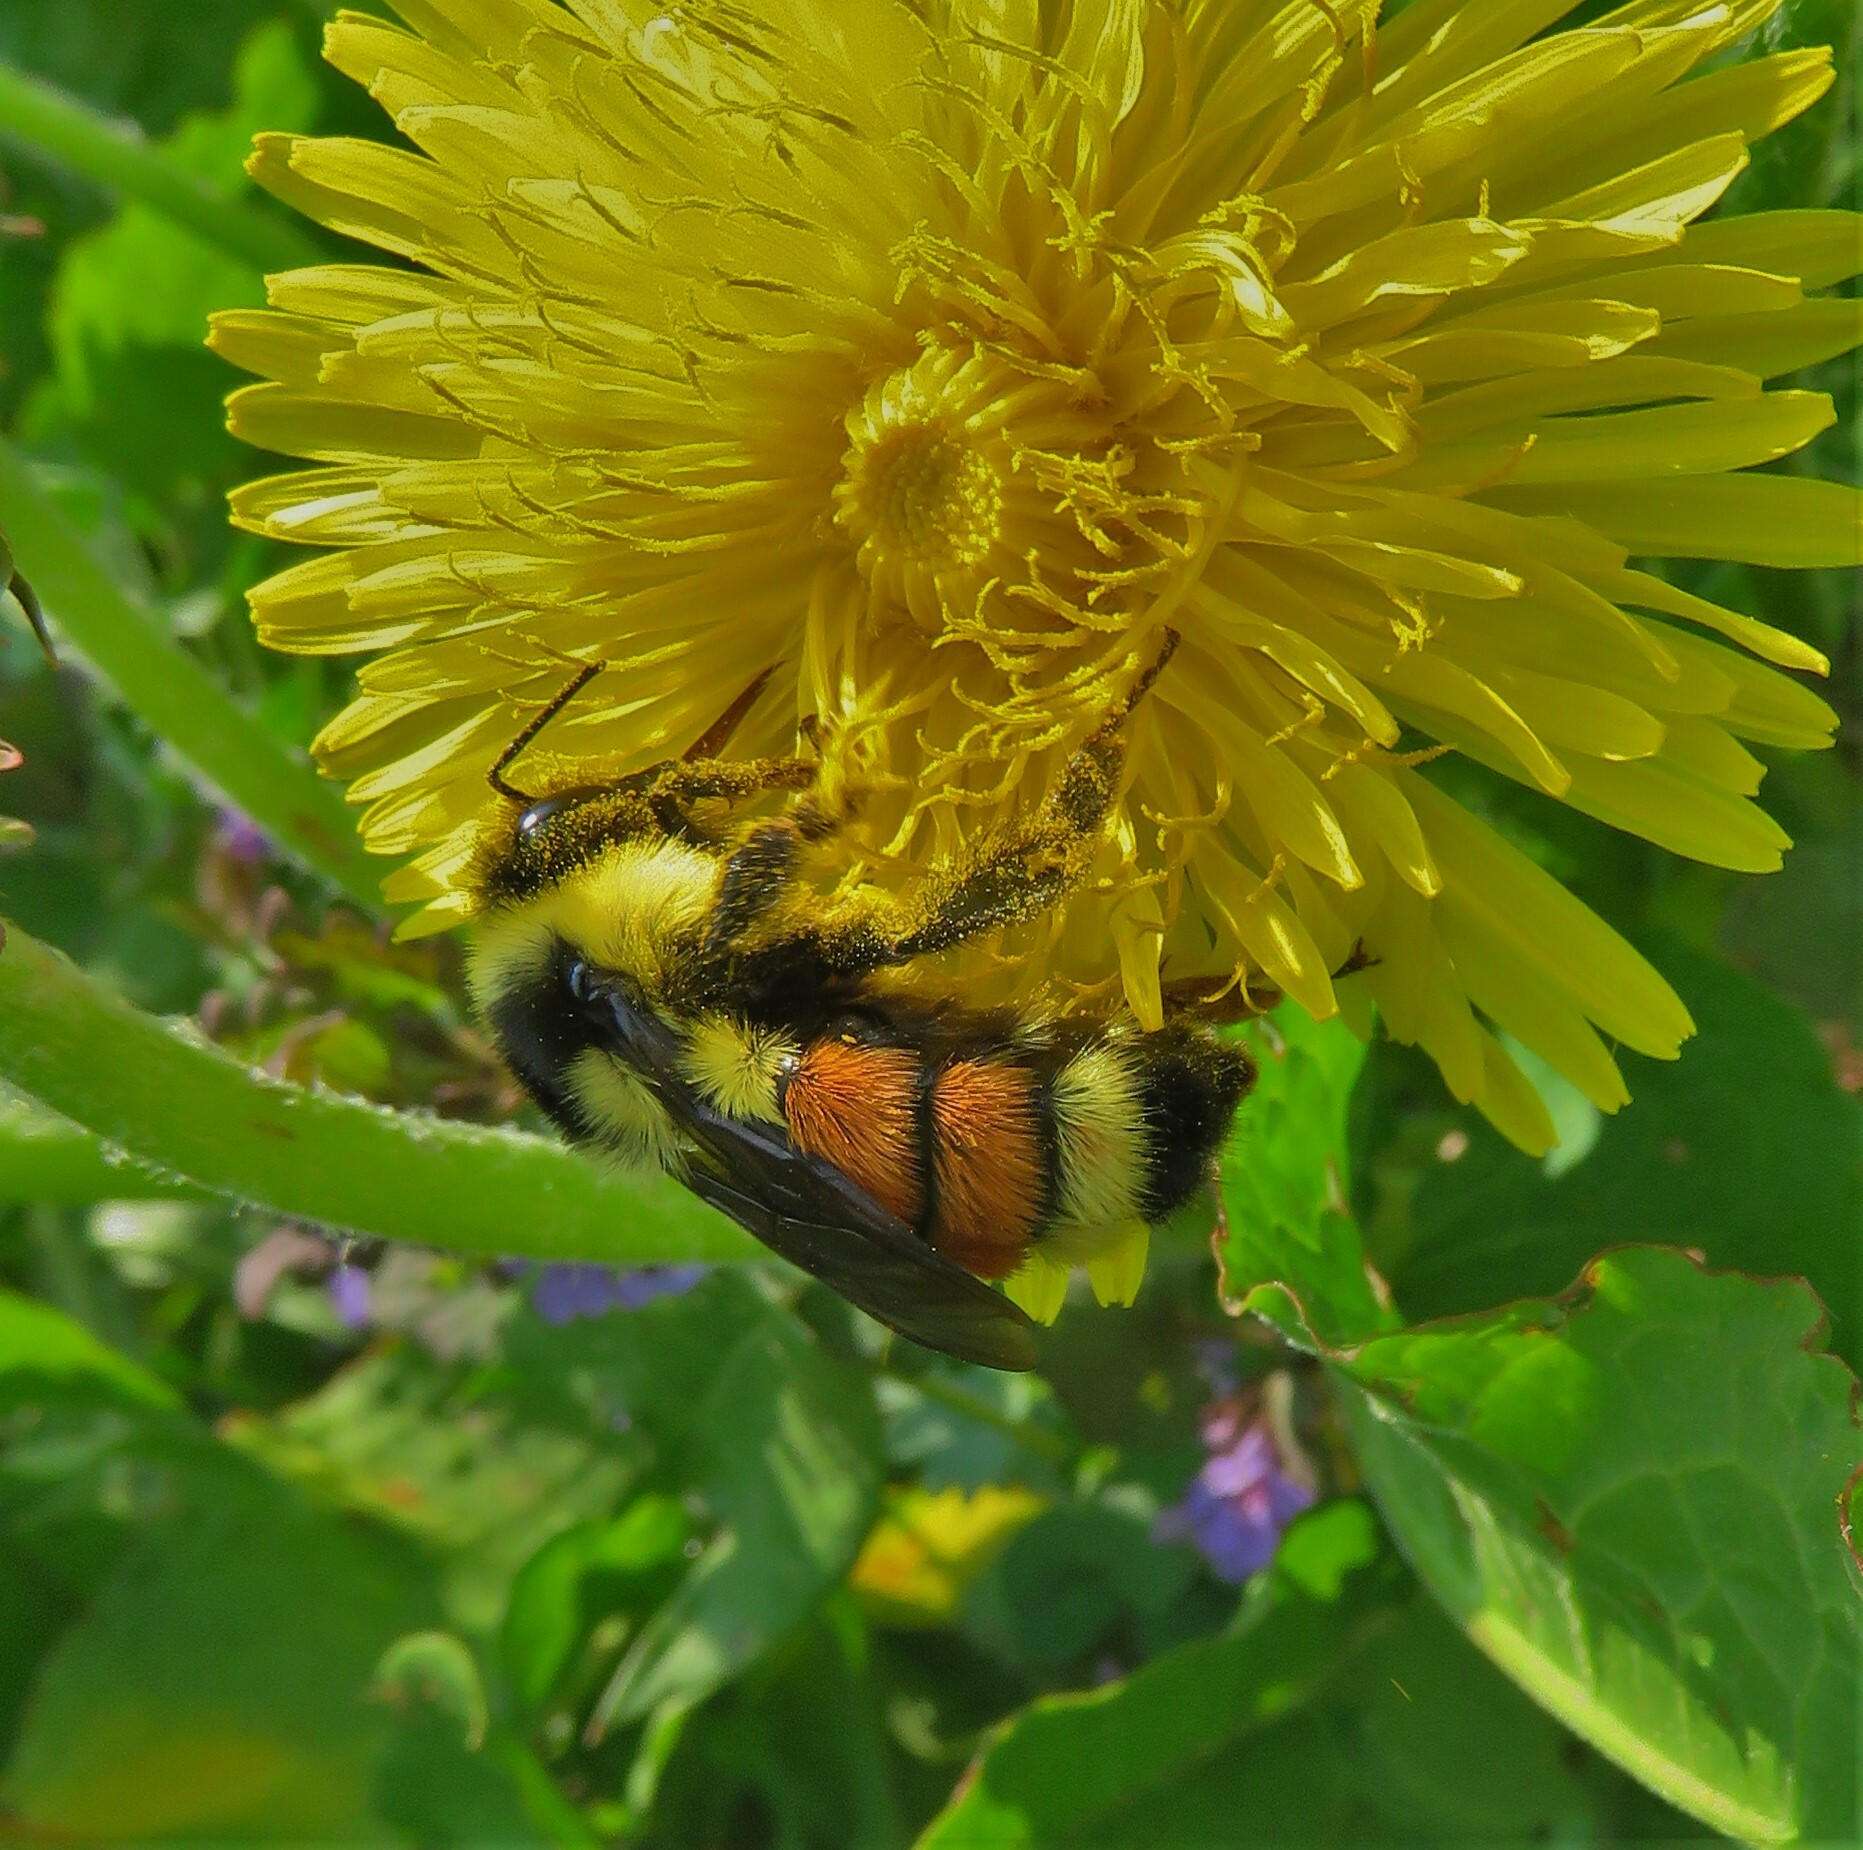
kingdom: Animalia
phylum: Arthropoda
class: Insecta
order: Hymenoptera
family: Apidae
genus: Bombus
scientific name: Bombus ternarius
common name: Tri-colored bumble bee
